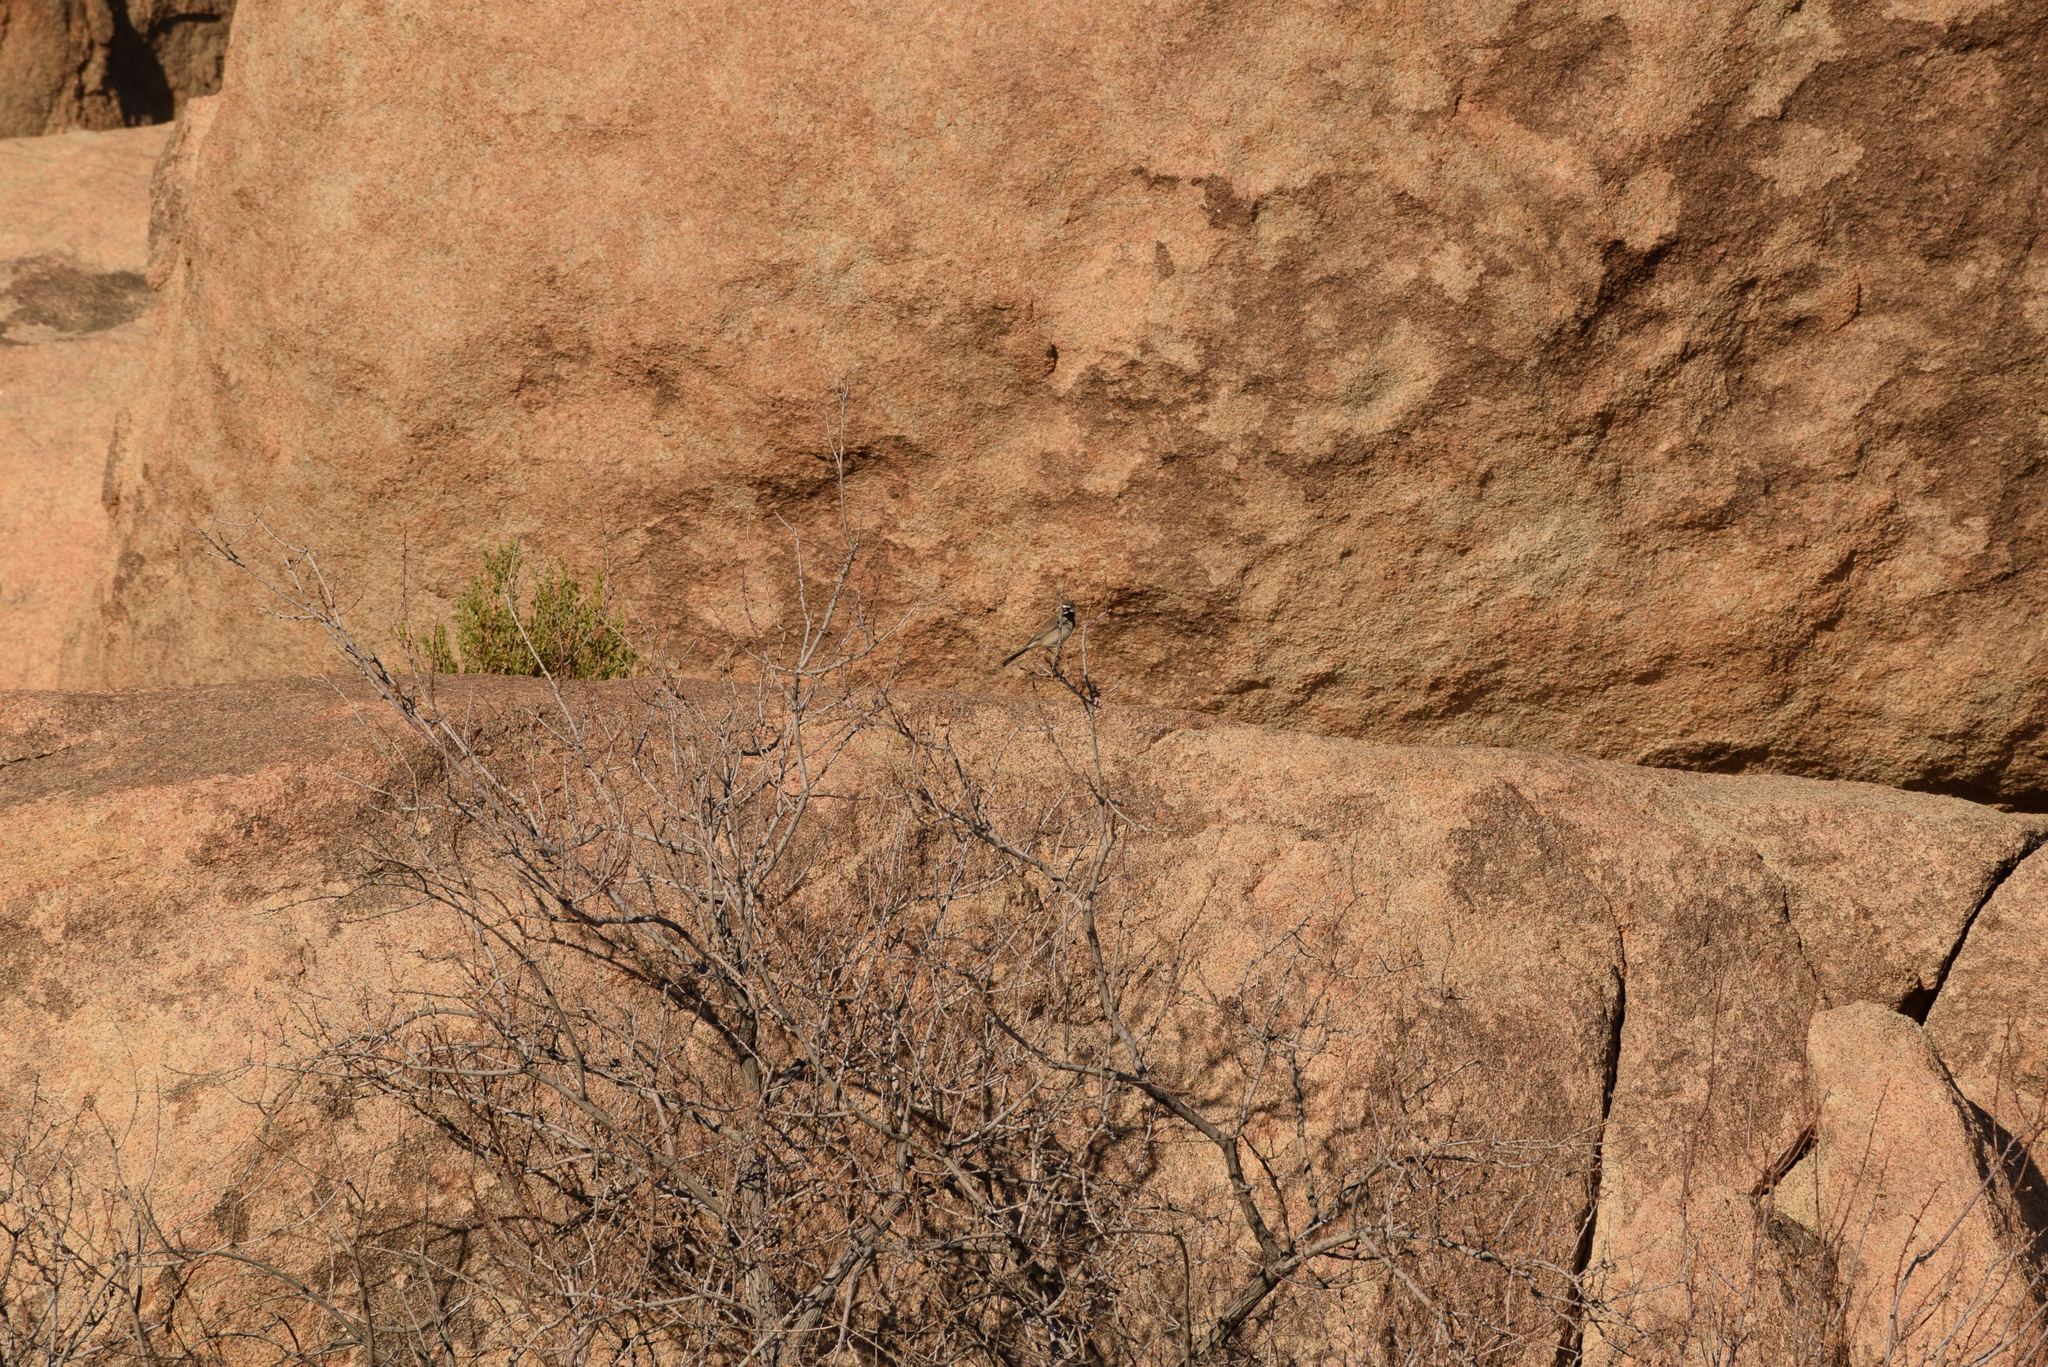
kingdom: Animalia
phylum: Chordata
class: Aves
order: Passeriformes
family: Passerellidae
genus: Amphispiza
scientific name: Amphispiza bilineata
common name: Black-throated sparrow
